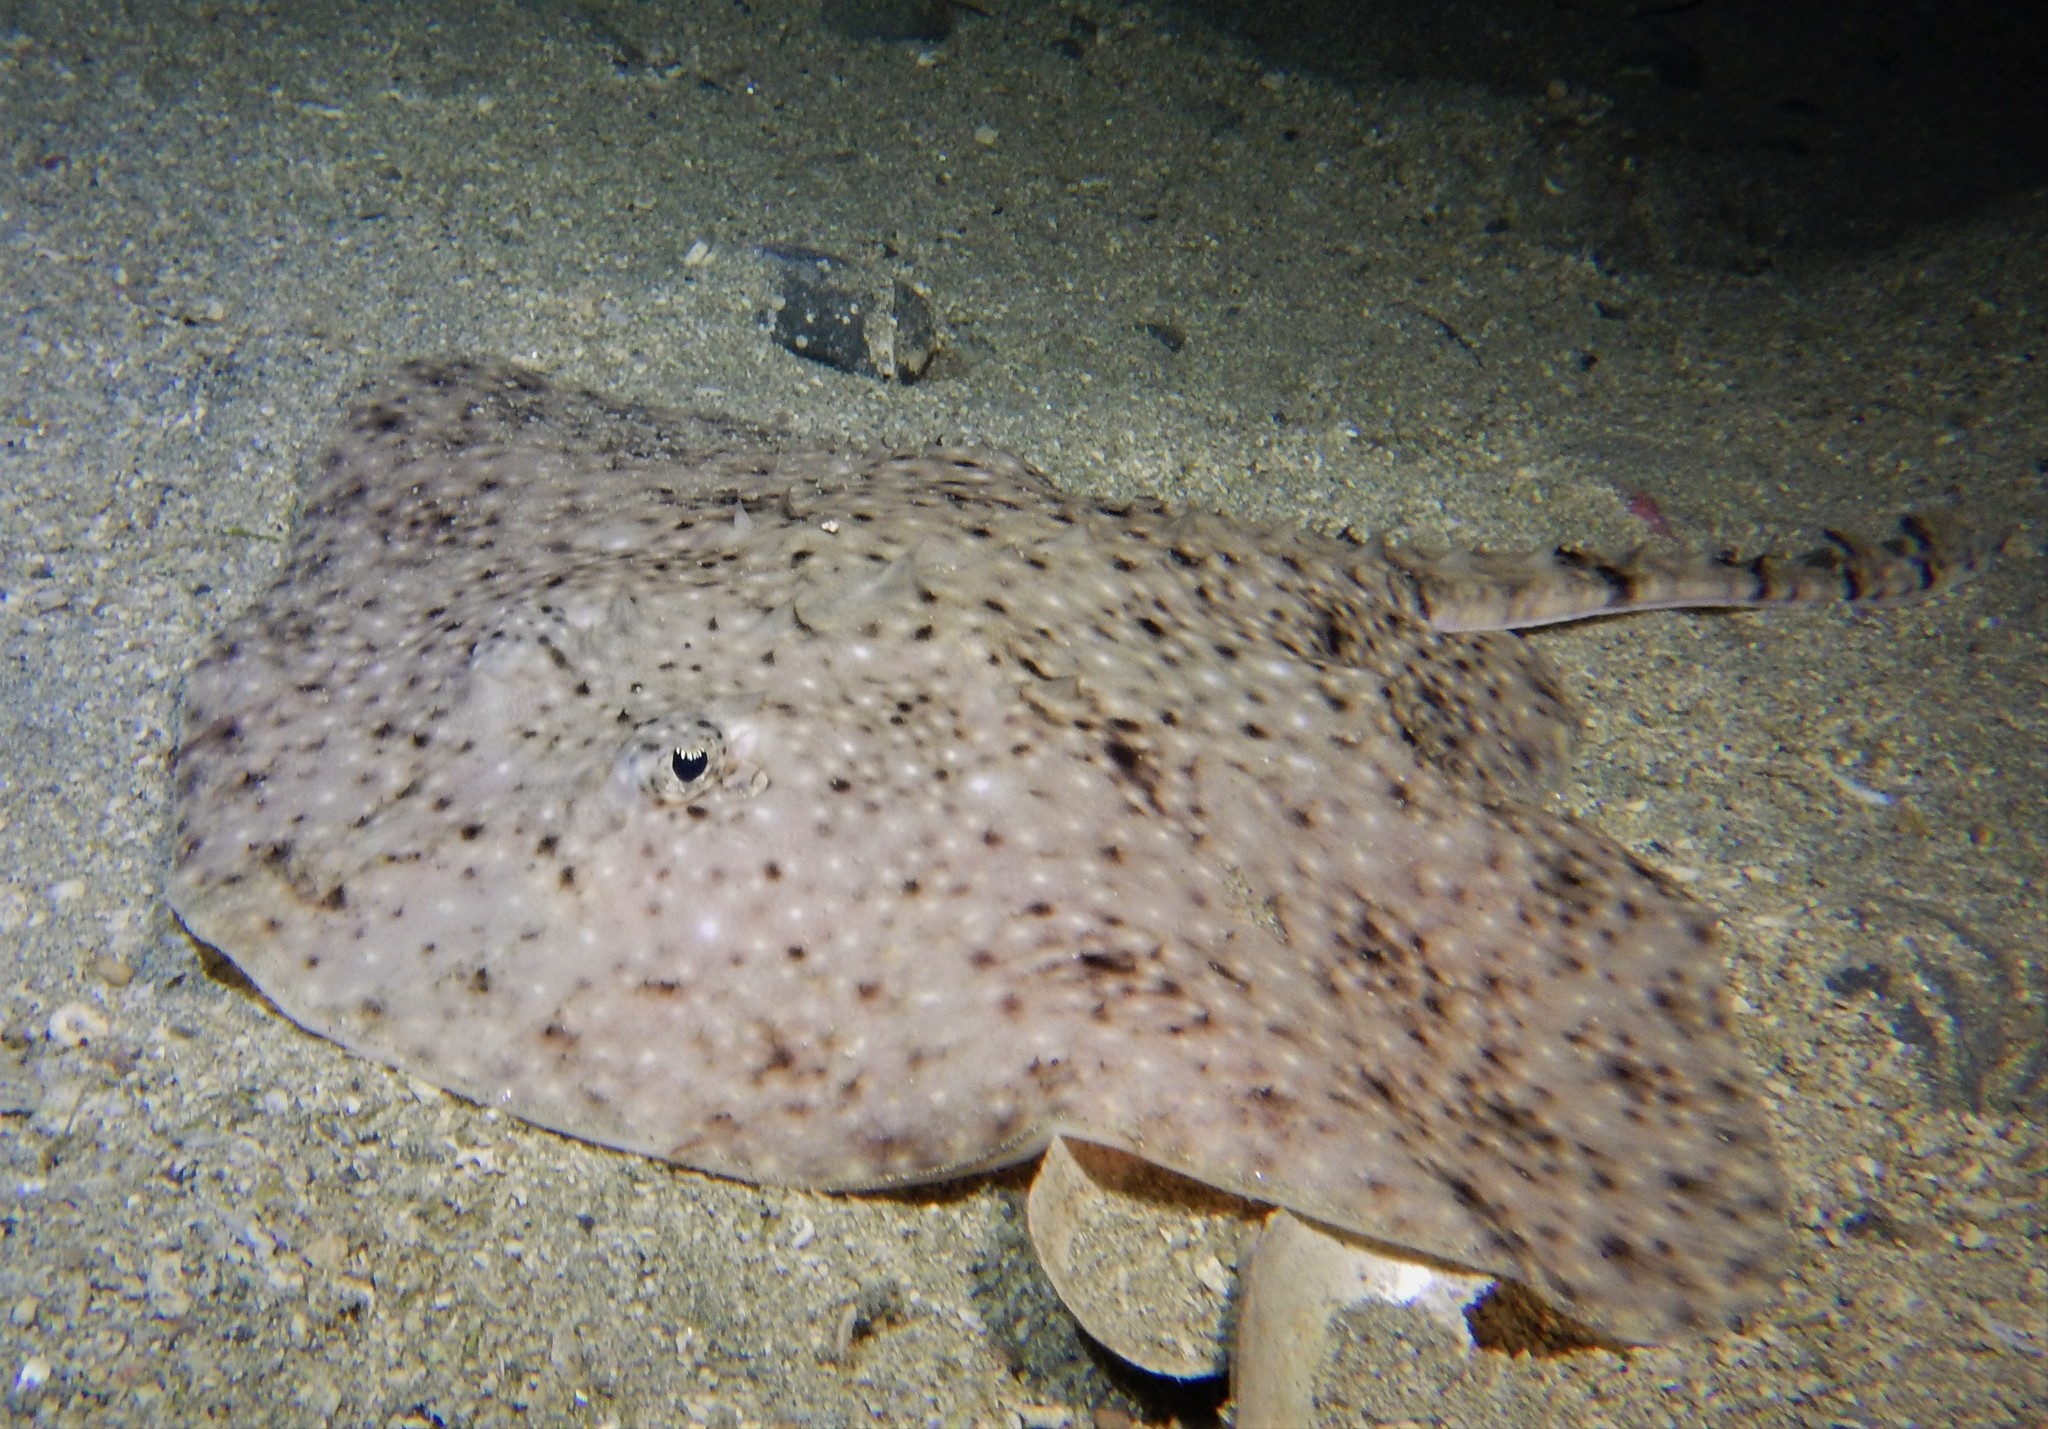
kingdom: Animalia
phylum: Chordata
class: Elasmobranchii
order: Rajiformes
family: Rajidae
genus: Amblyraja
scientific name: Amblyraja radiata
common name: Starry ray
